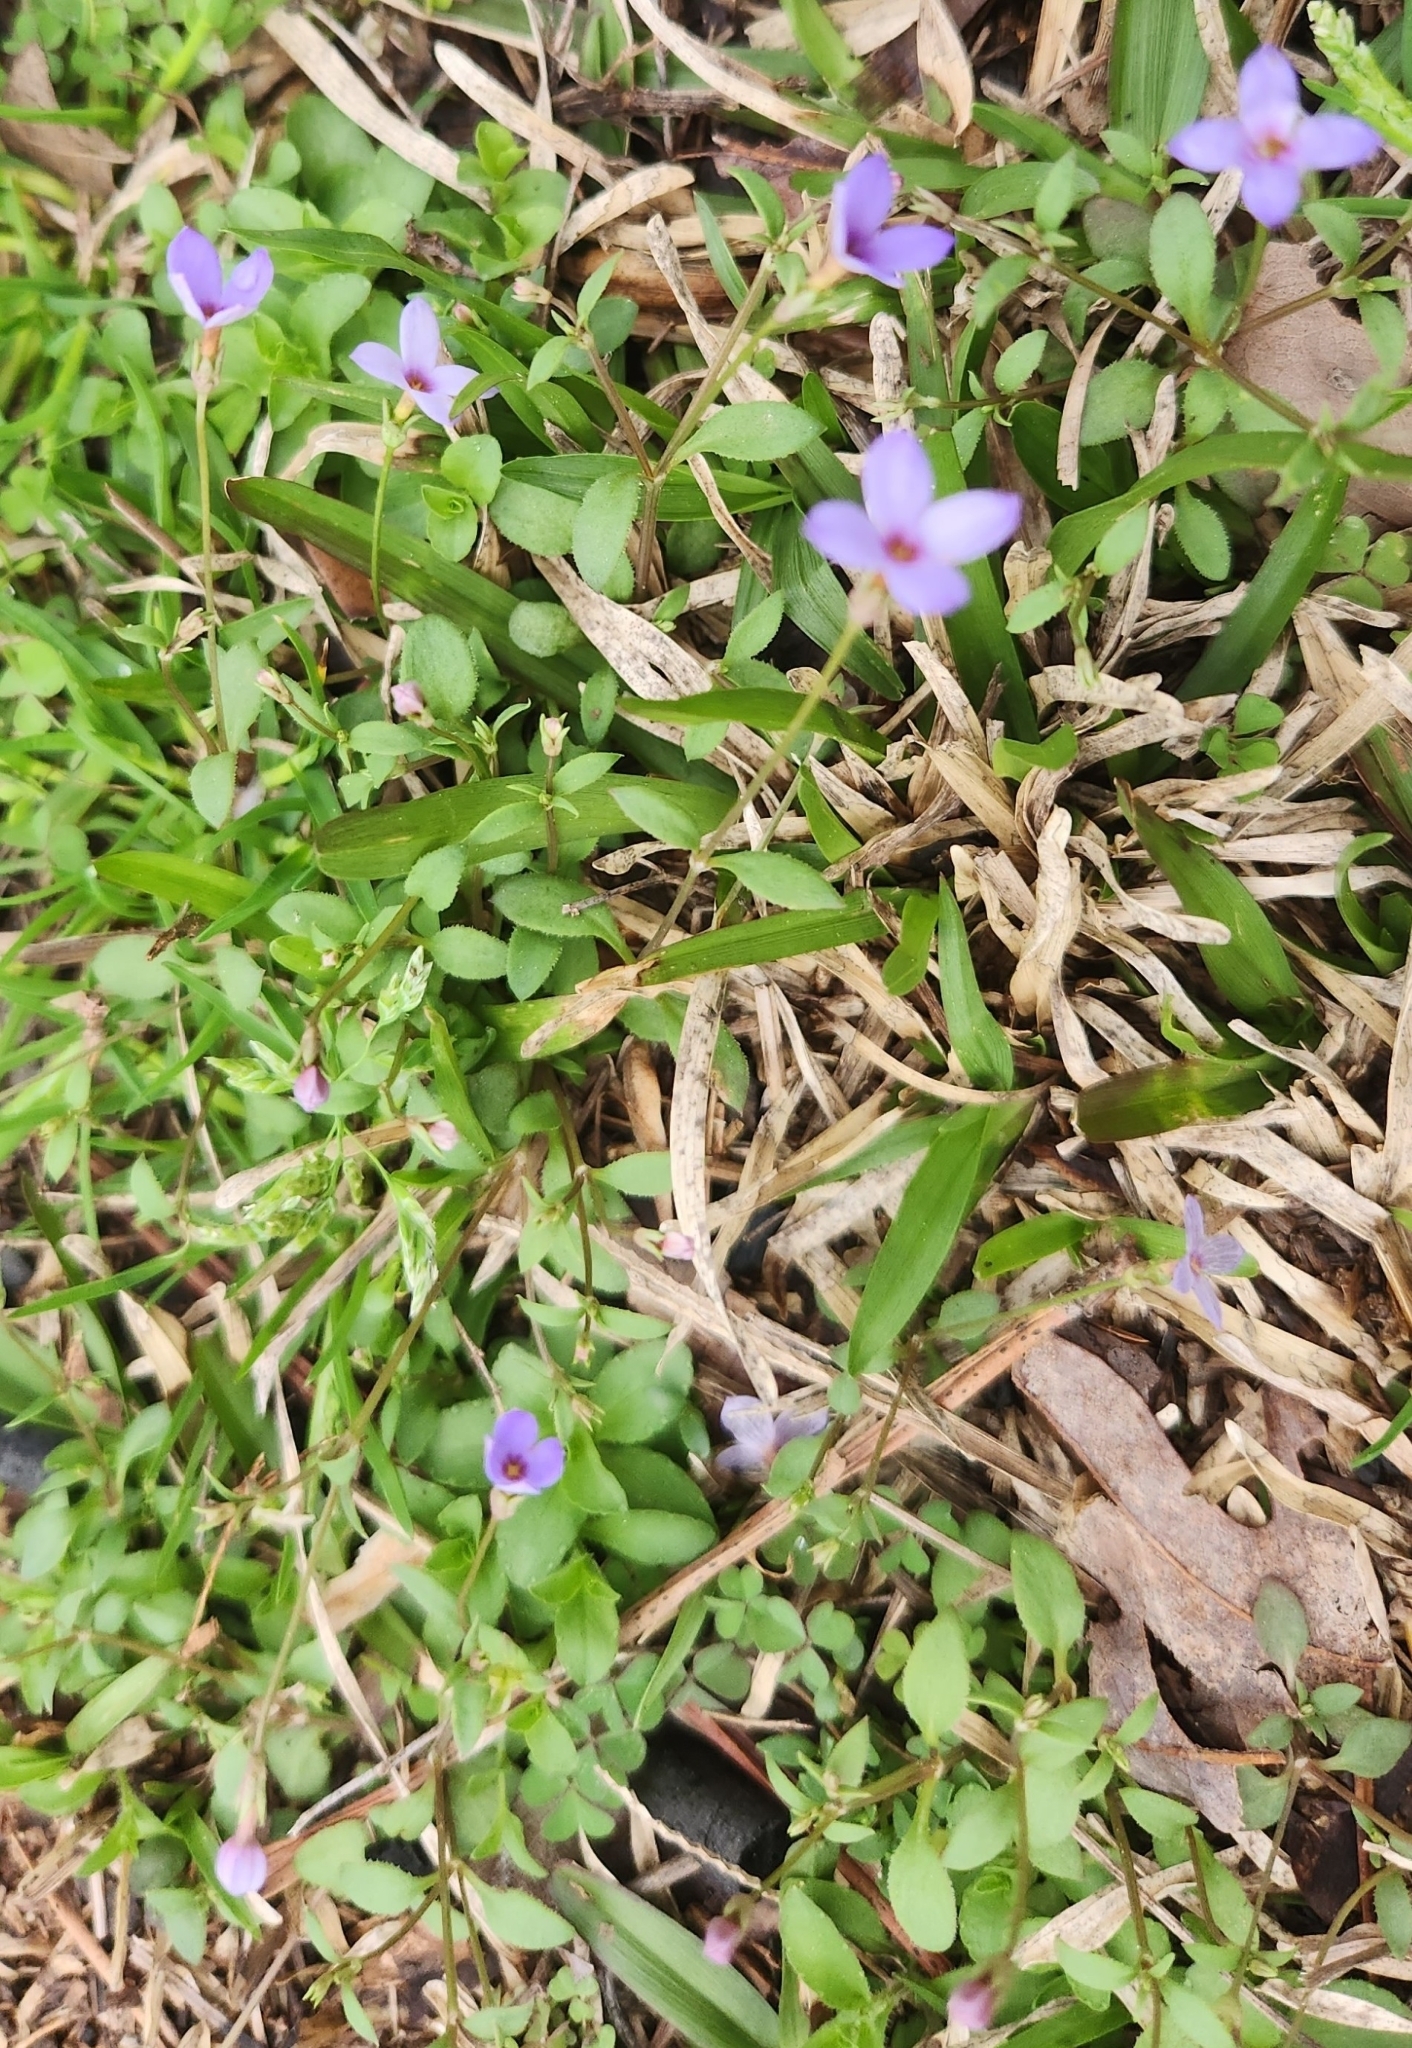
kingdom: Plantae
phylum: Tracheophyta
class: Magnoliopsida
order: Gentianales
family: Rubiaceae
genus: Houstonia
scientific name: Houstonia pusilla
